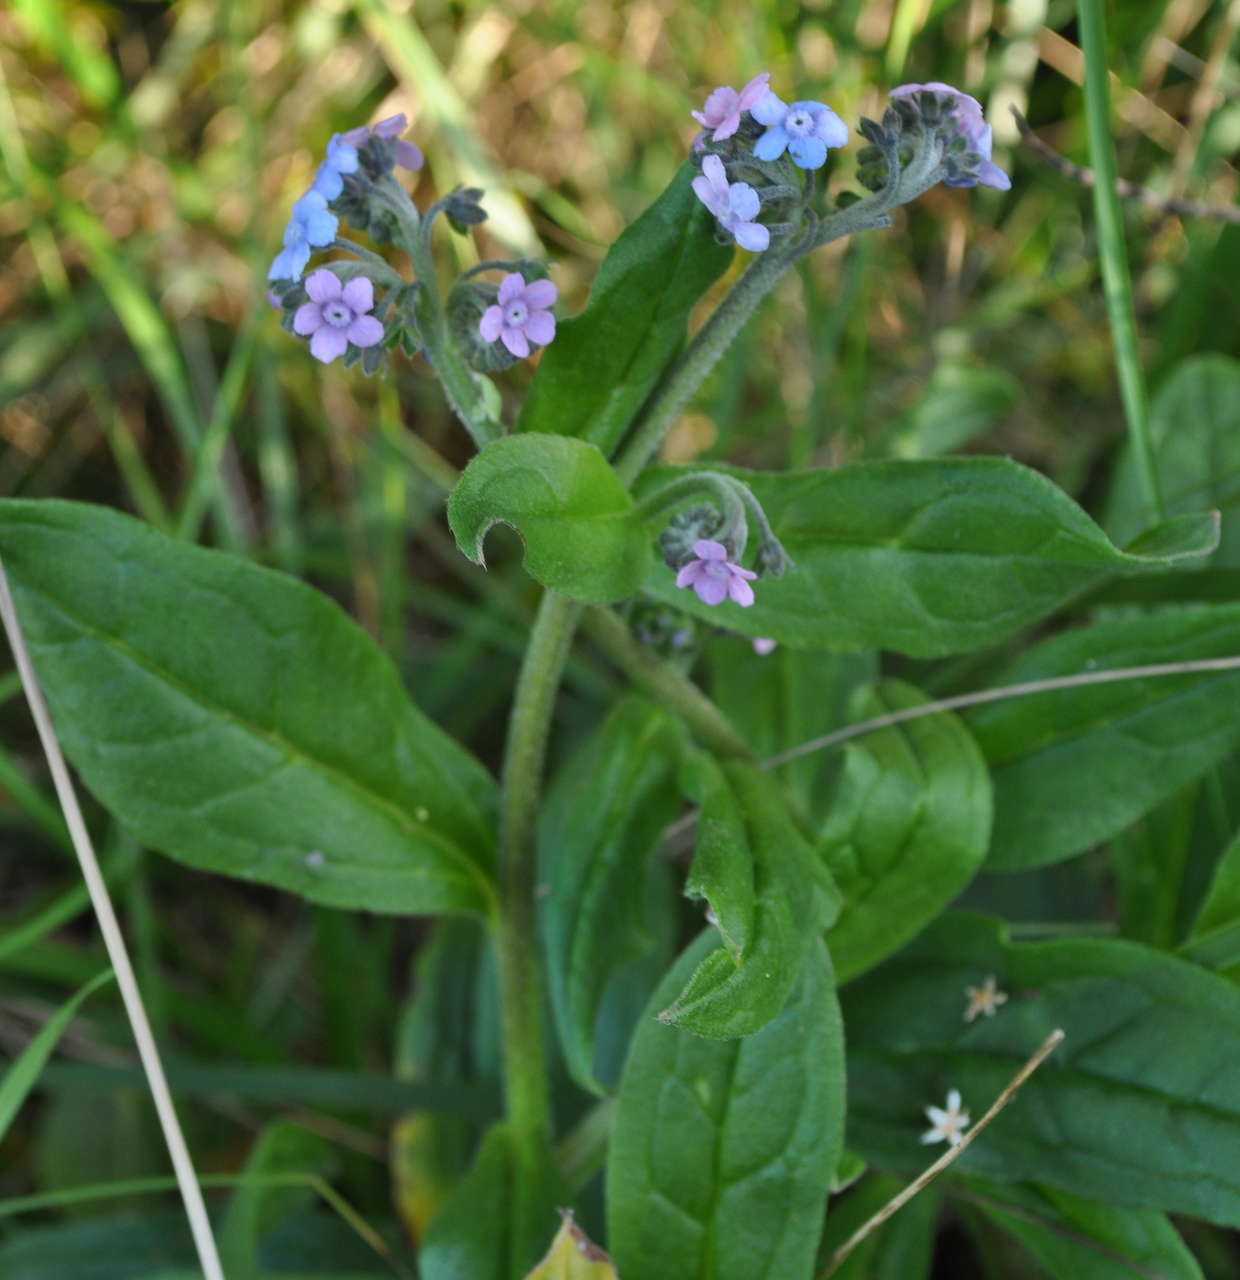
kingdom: Plantae
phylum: Tracheophyta
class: Magnoliopsida
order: Boraginales
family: Boraginaceae
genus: Myosotis
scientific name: Myosotis australis
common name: Australian forget-me-not
